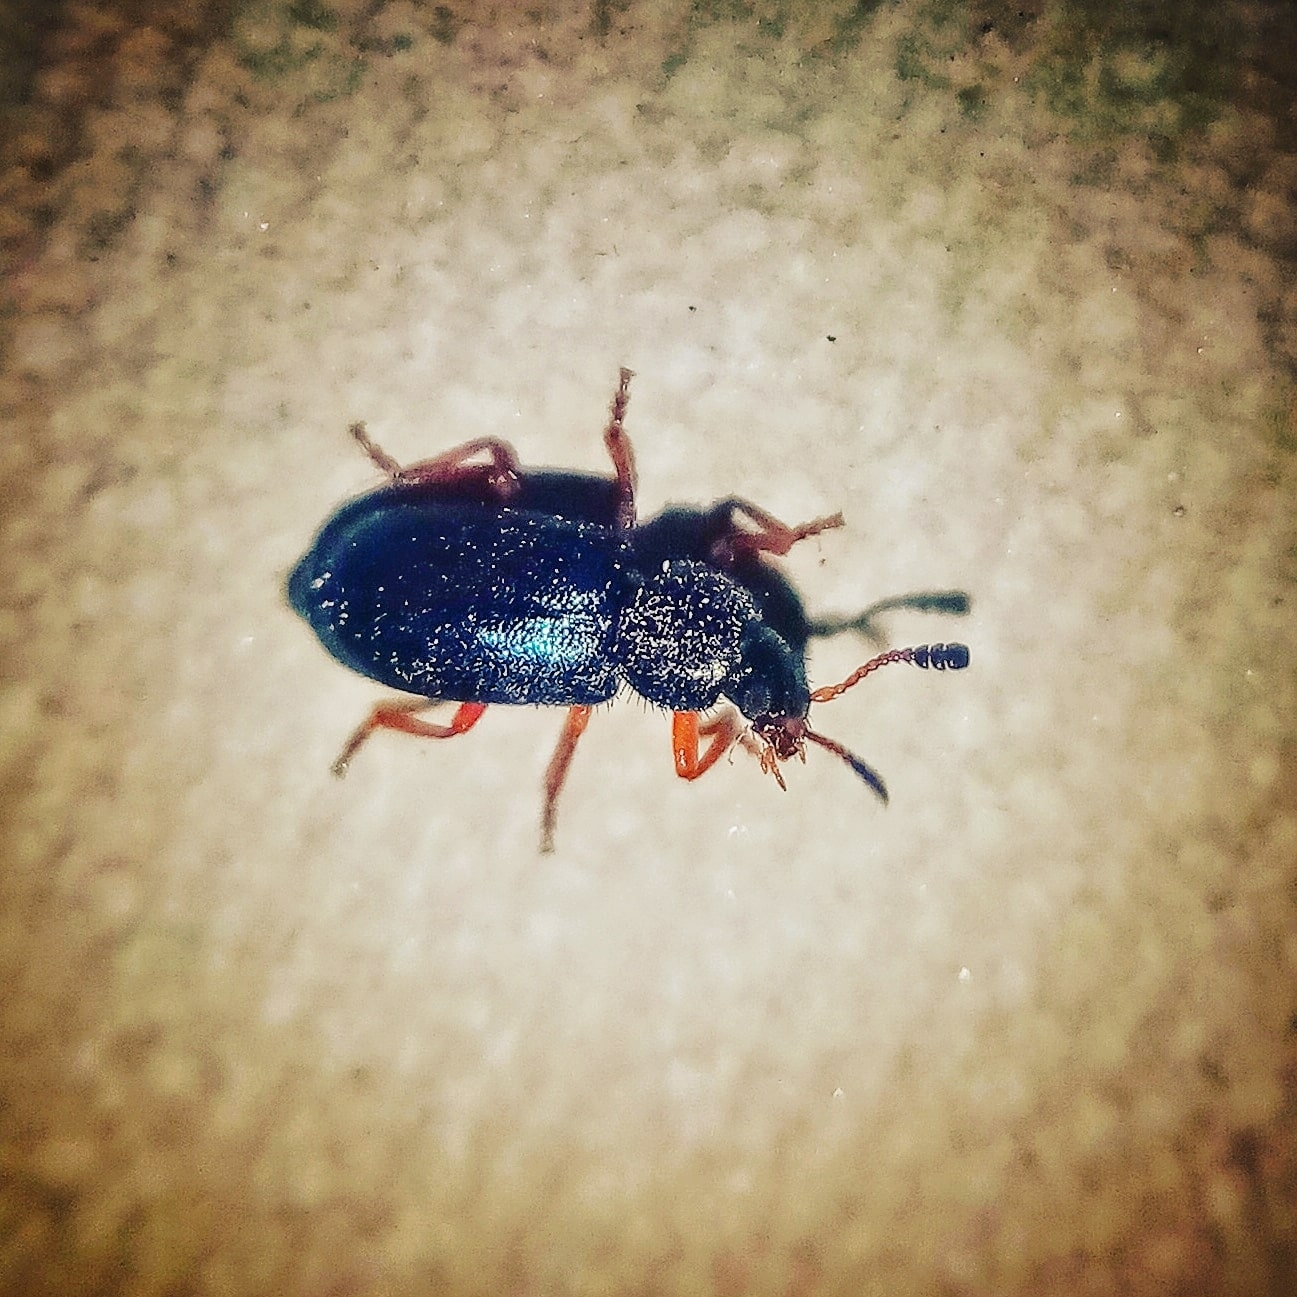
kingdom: Animalia
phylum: Arthropoda
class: Insecta
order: Coleoptera
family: Cleridae
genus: Necrobia
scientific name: Necrobia rufipes
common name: Red-legged ham beetle
